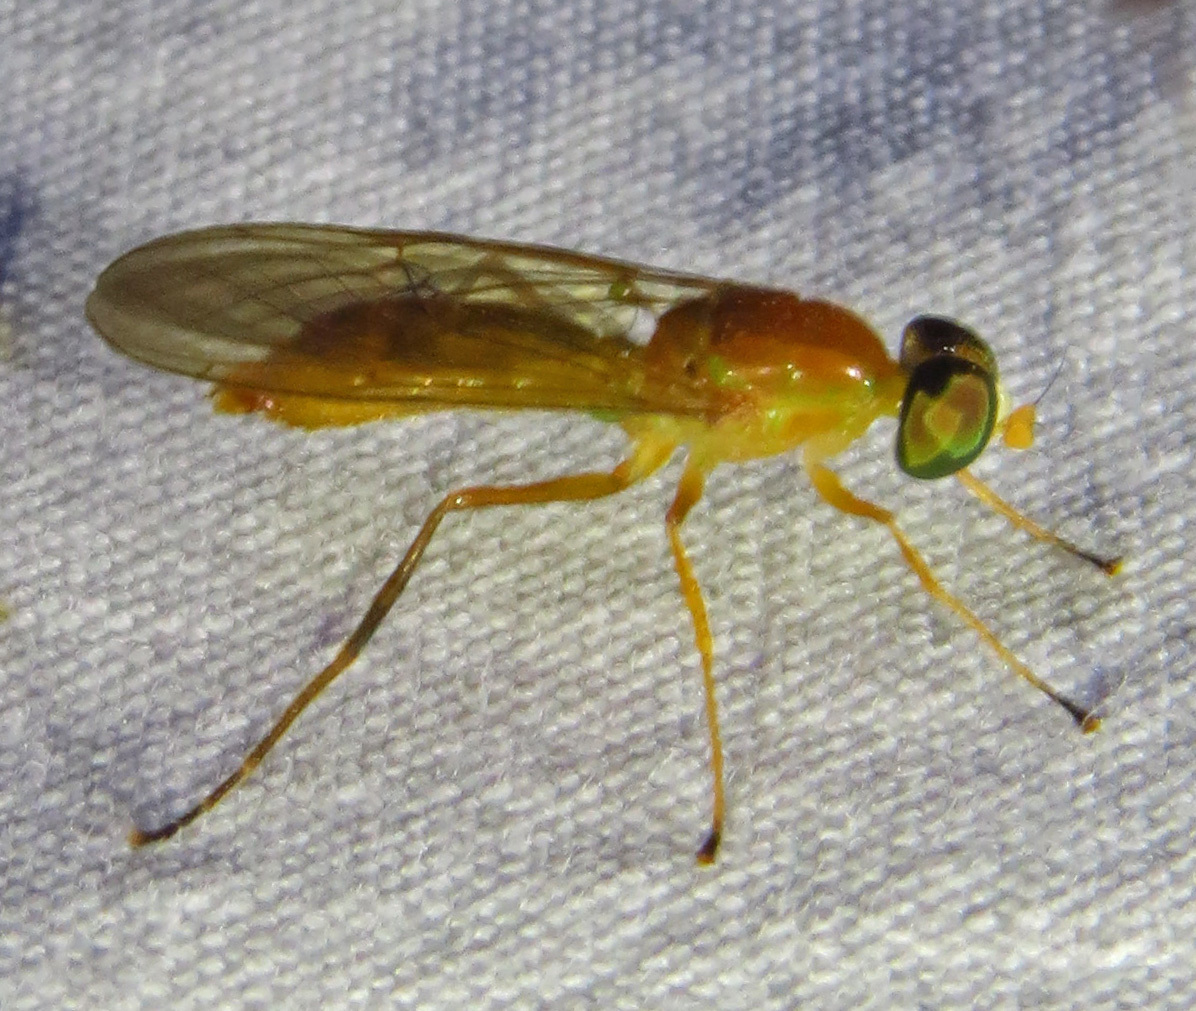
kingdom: Animalia
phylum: Arthropoda
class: Insecta
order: Diptera
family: Stratiomyidae
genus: Ptecticus
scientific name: Ptecticus trivittatus
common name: Compost fly
